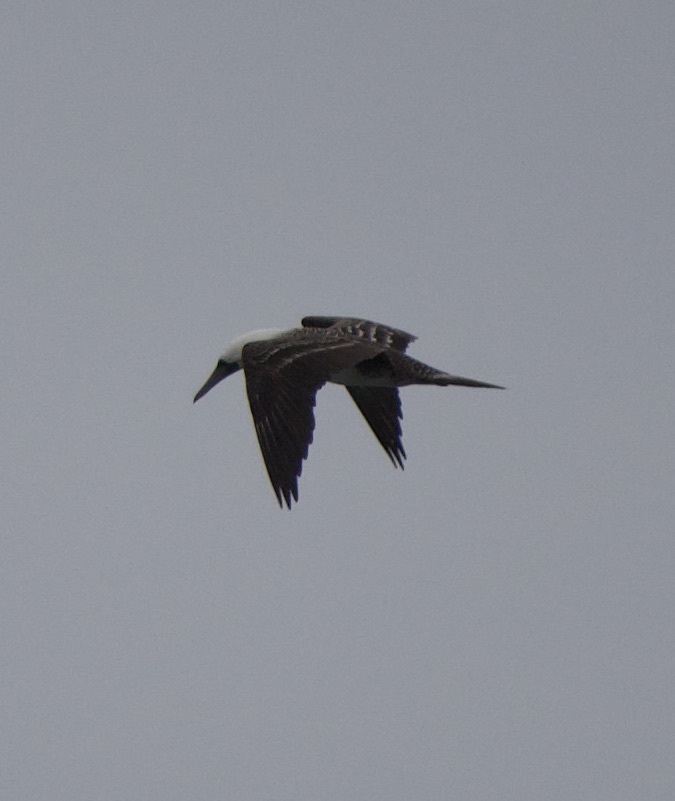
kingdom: Animalia
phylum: Chordata
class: Aves
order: Suliformes
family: Sulidae
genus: Sula
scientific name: Sula variegata
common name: Peruvian booby
